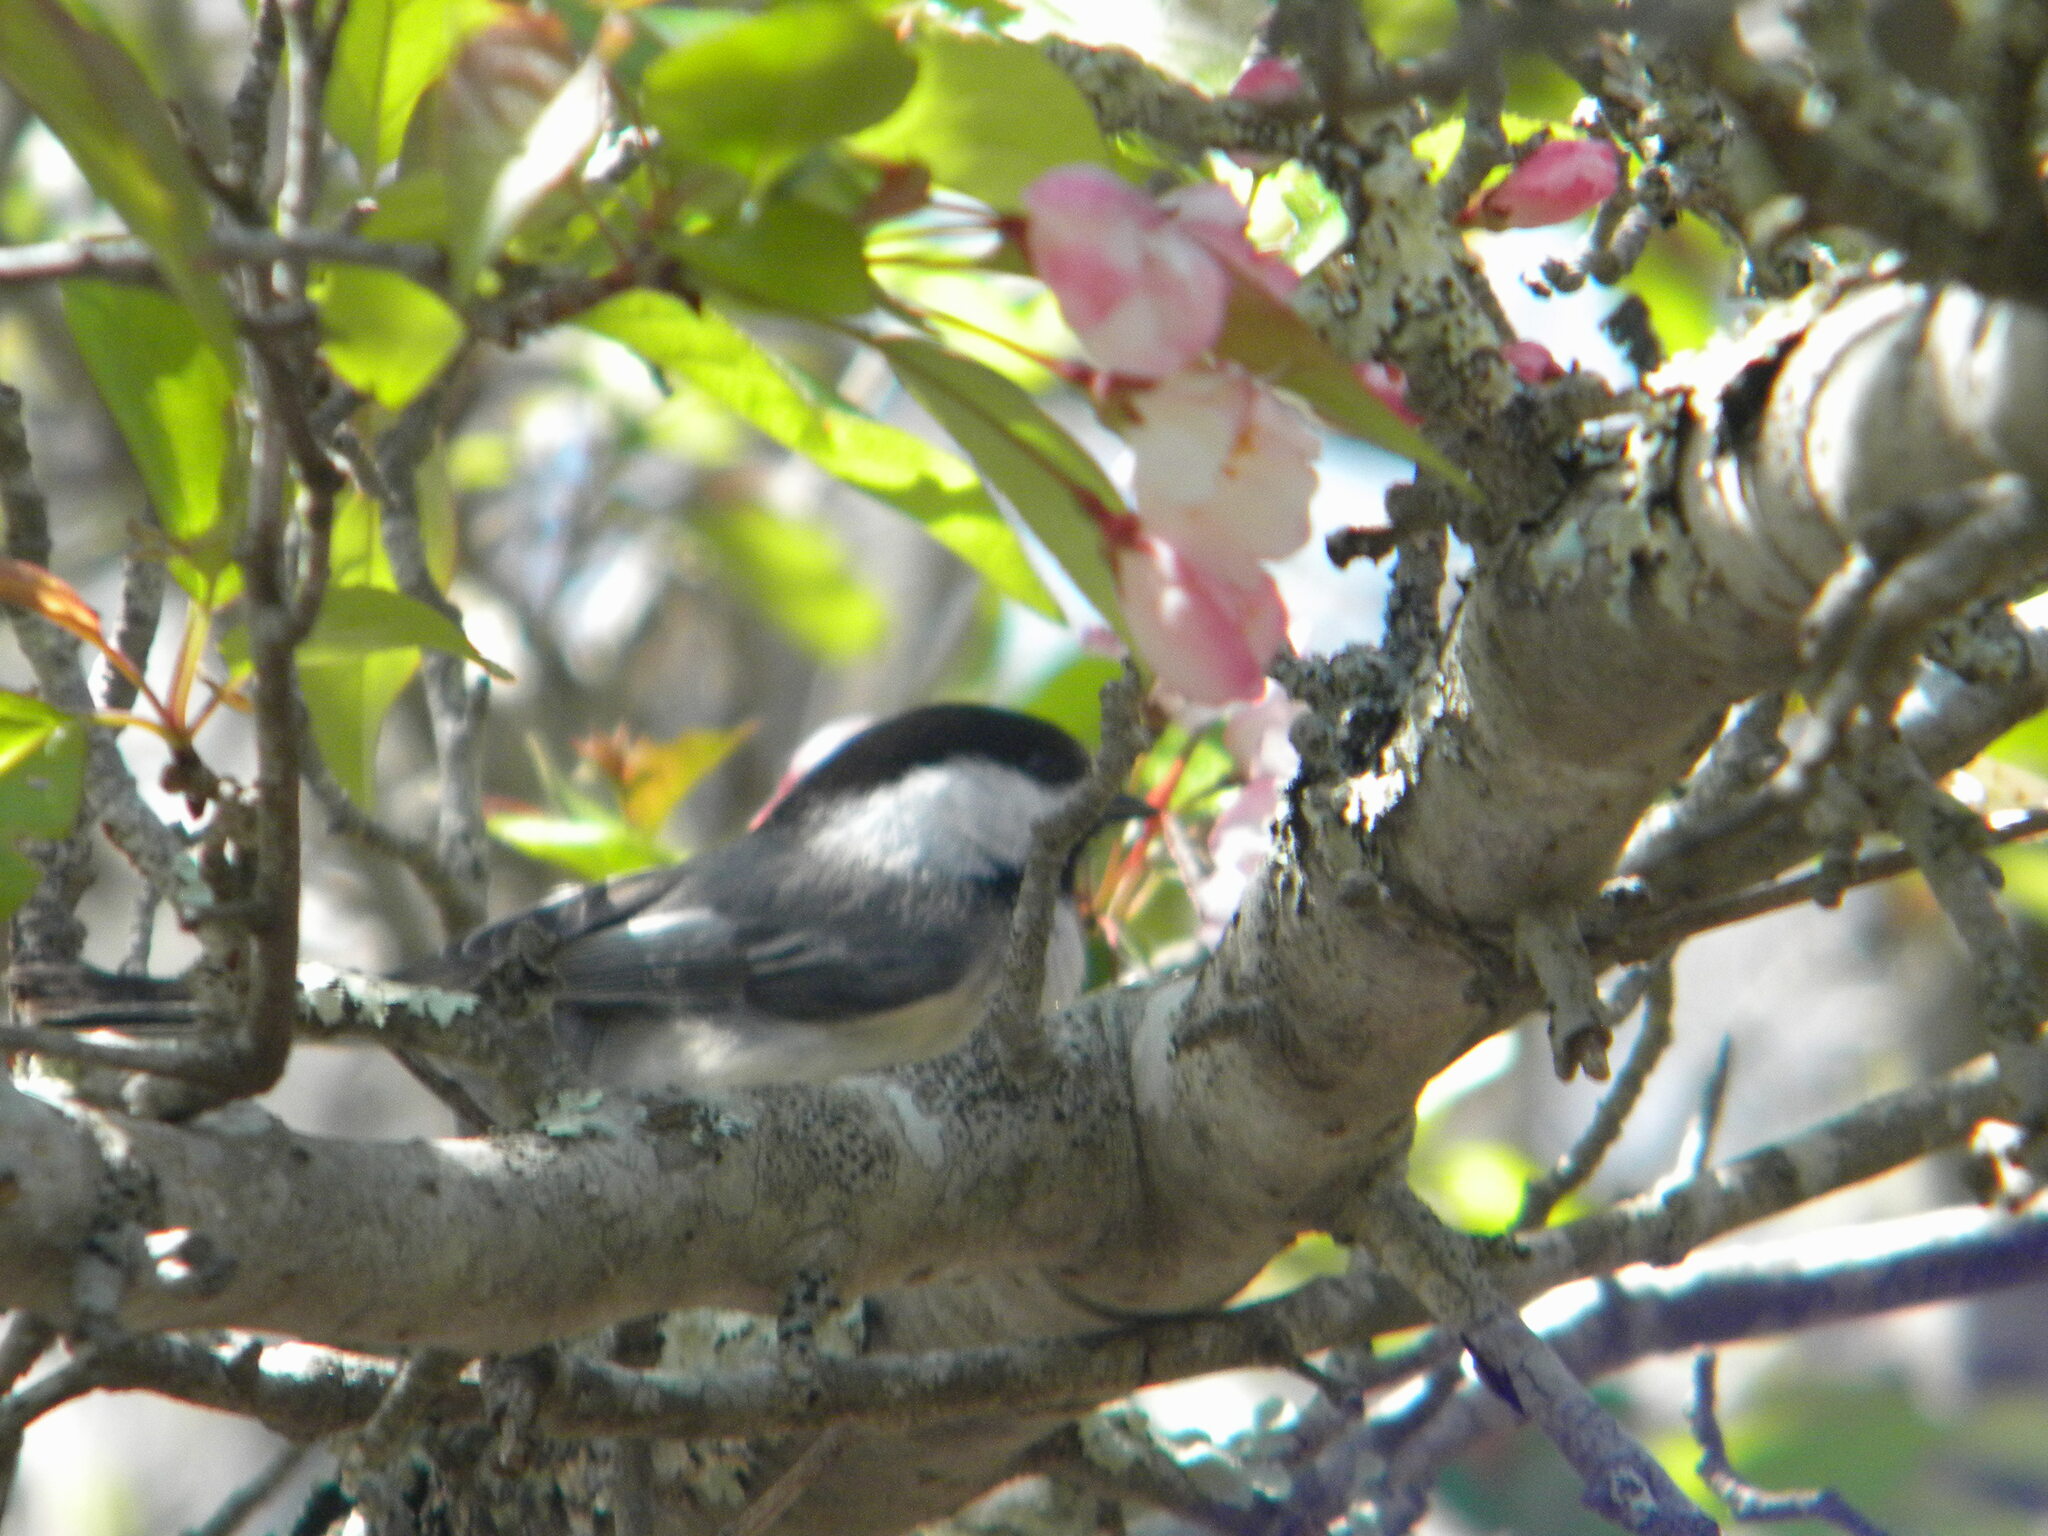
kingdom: Animalia
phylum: Chordata
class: Aves
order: Passeriformes
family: Paridae
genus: Poecile
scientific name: Poecile atricapillus
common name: Black-capped chickadee
